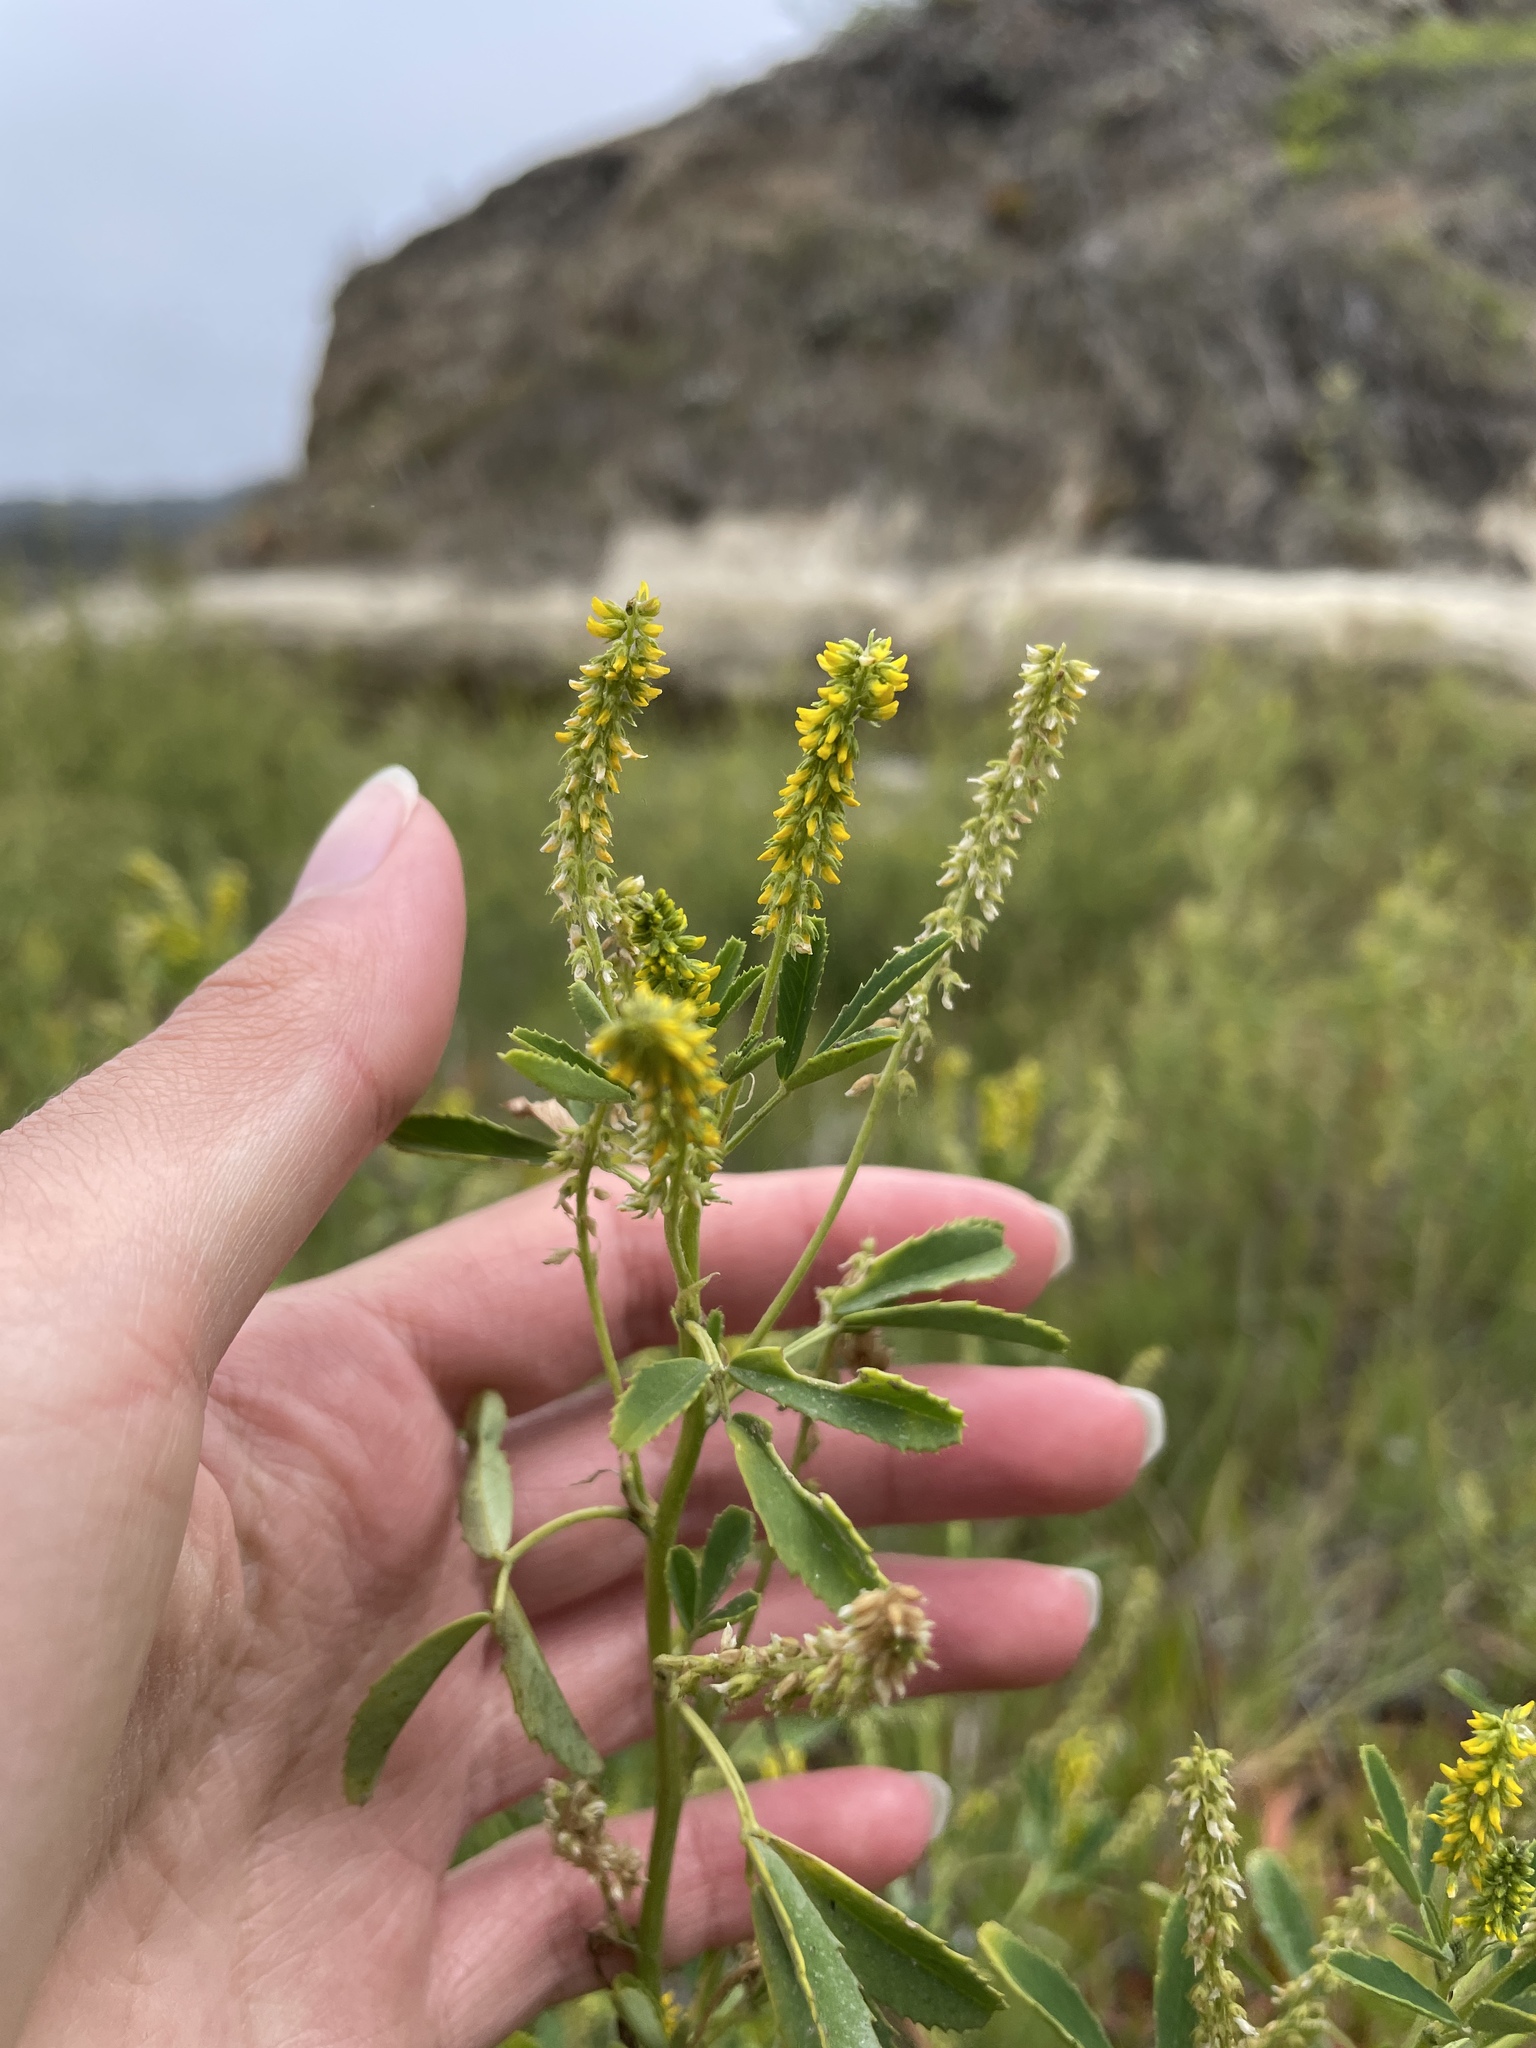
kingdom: Plantae
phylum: Tracheophyta
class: Magnoliopsida
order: Fabales
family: Fabaceae
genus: Melilotus
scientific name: Melilotus indicus
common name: Small melilot
